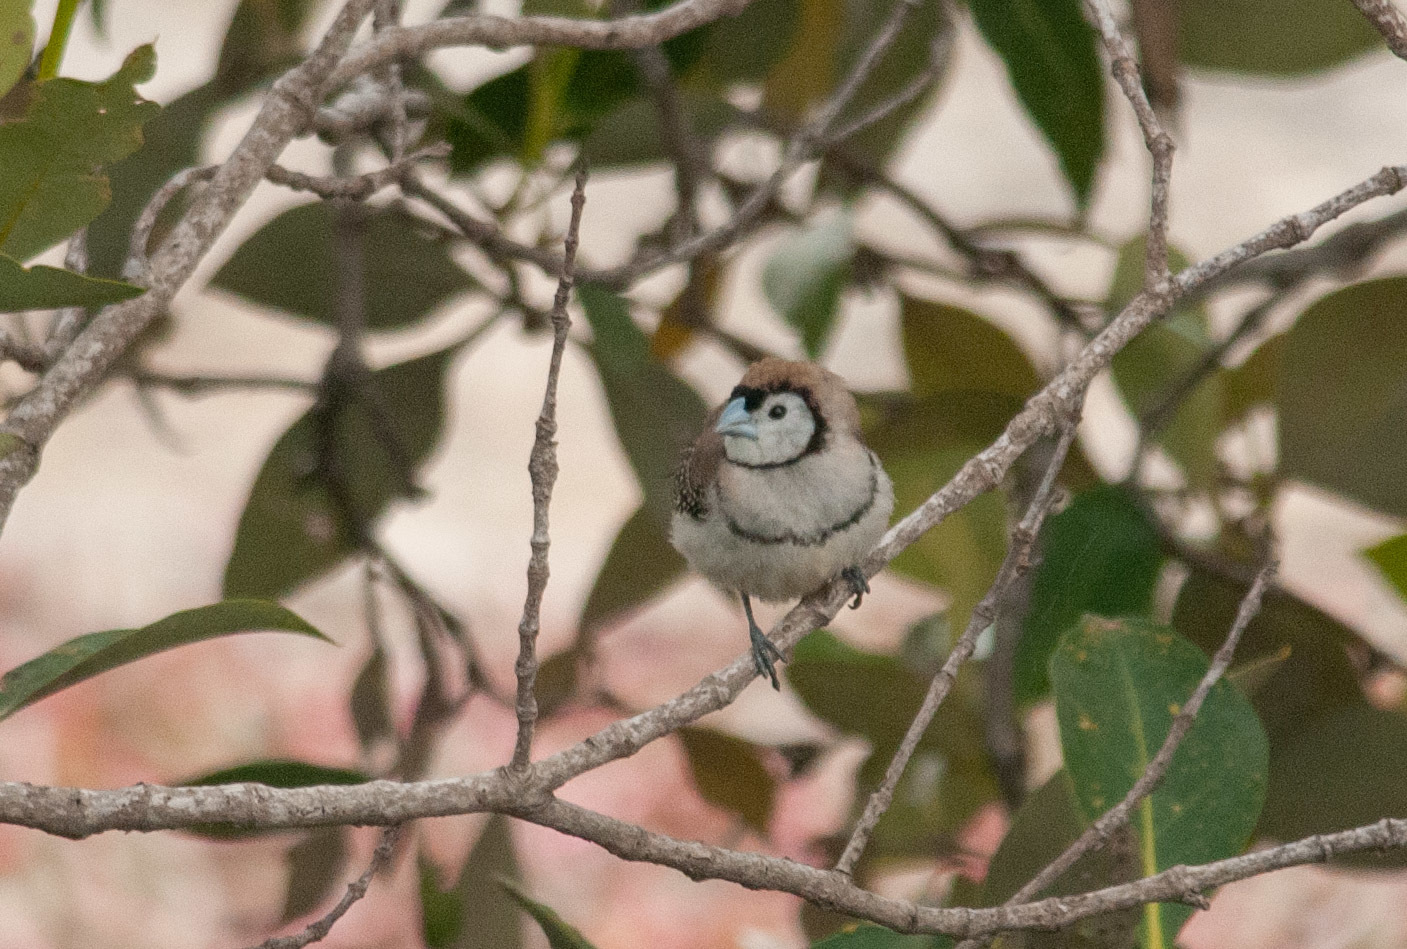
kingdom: Animalia
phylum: Chordata
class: Aves
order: Passeriformes
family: Estrildidae
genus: Taeniopygia
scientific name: Taeniopygia bichenovii
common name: Double-barred finch
